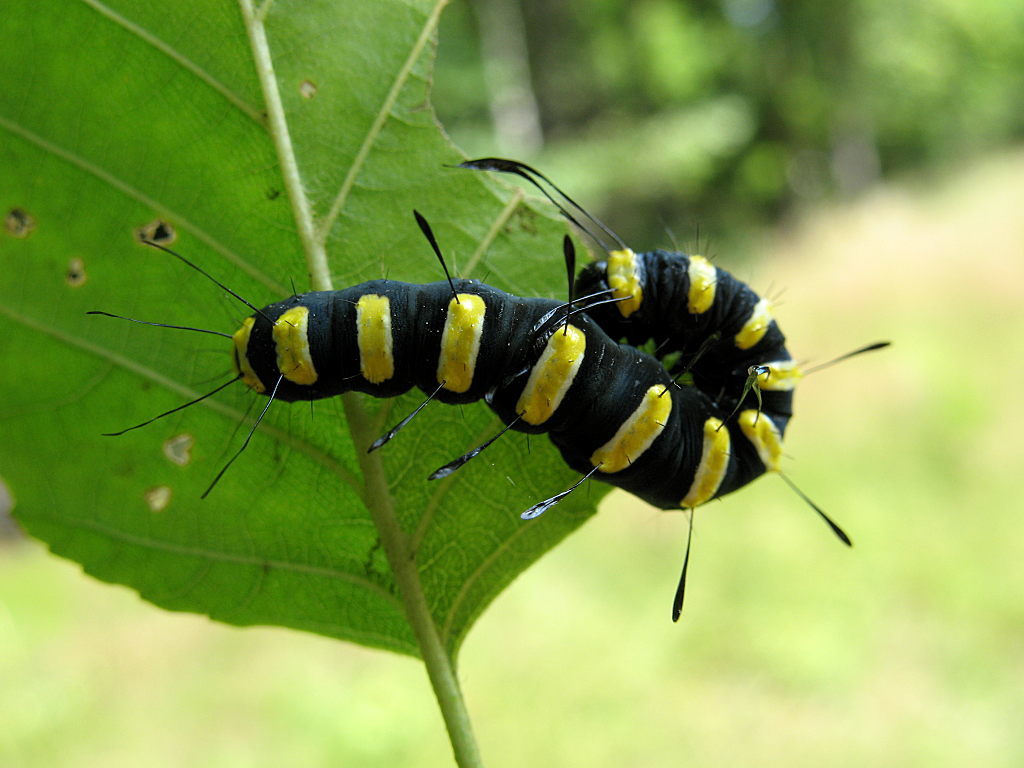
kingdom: Animalia
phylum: Arthropoda
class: Insecta
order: Lepidoptera
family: Noctuidae
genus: Acronicta
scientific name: Acronicta alni
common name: Alder moth
